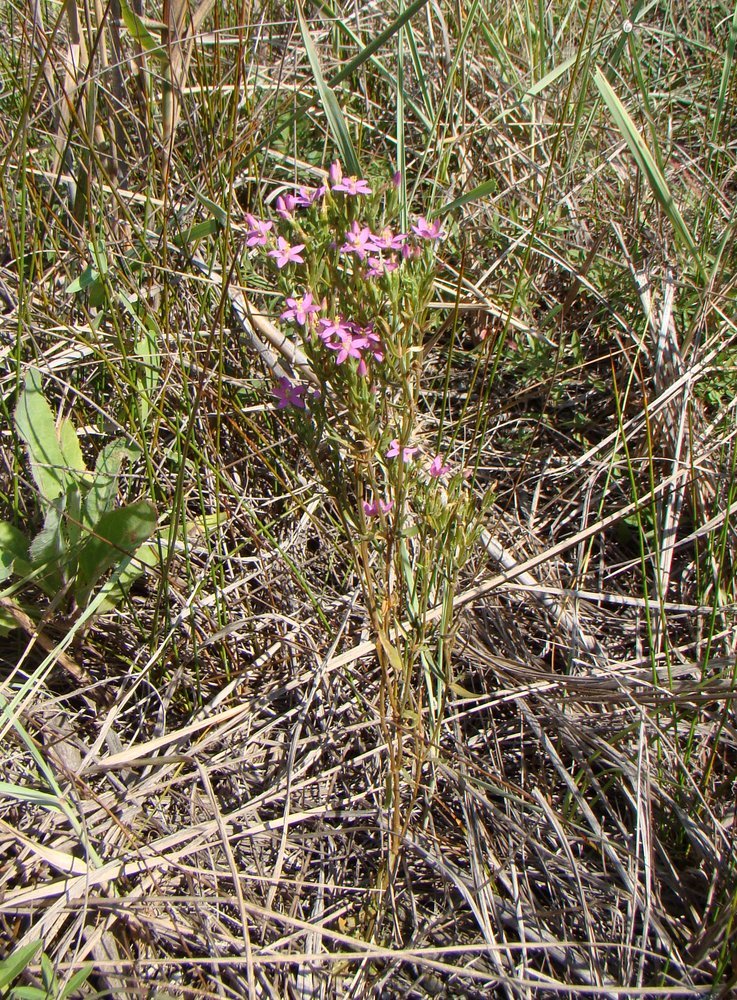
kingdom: Plantae
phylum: Tracheophyta
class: Magnoliopsida
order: Gentianales
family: Gentianaceae
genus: Centaurium
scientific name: Centaurium erythraea
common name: Common centaury
